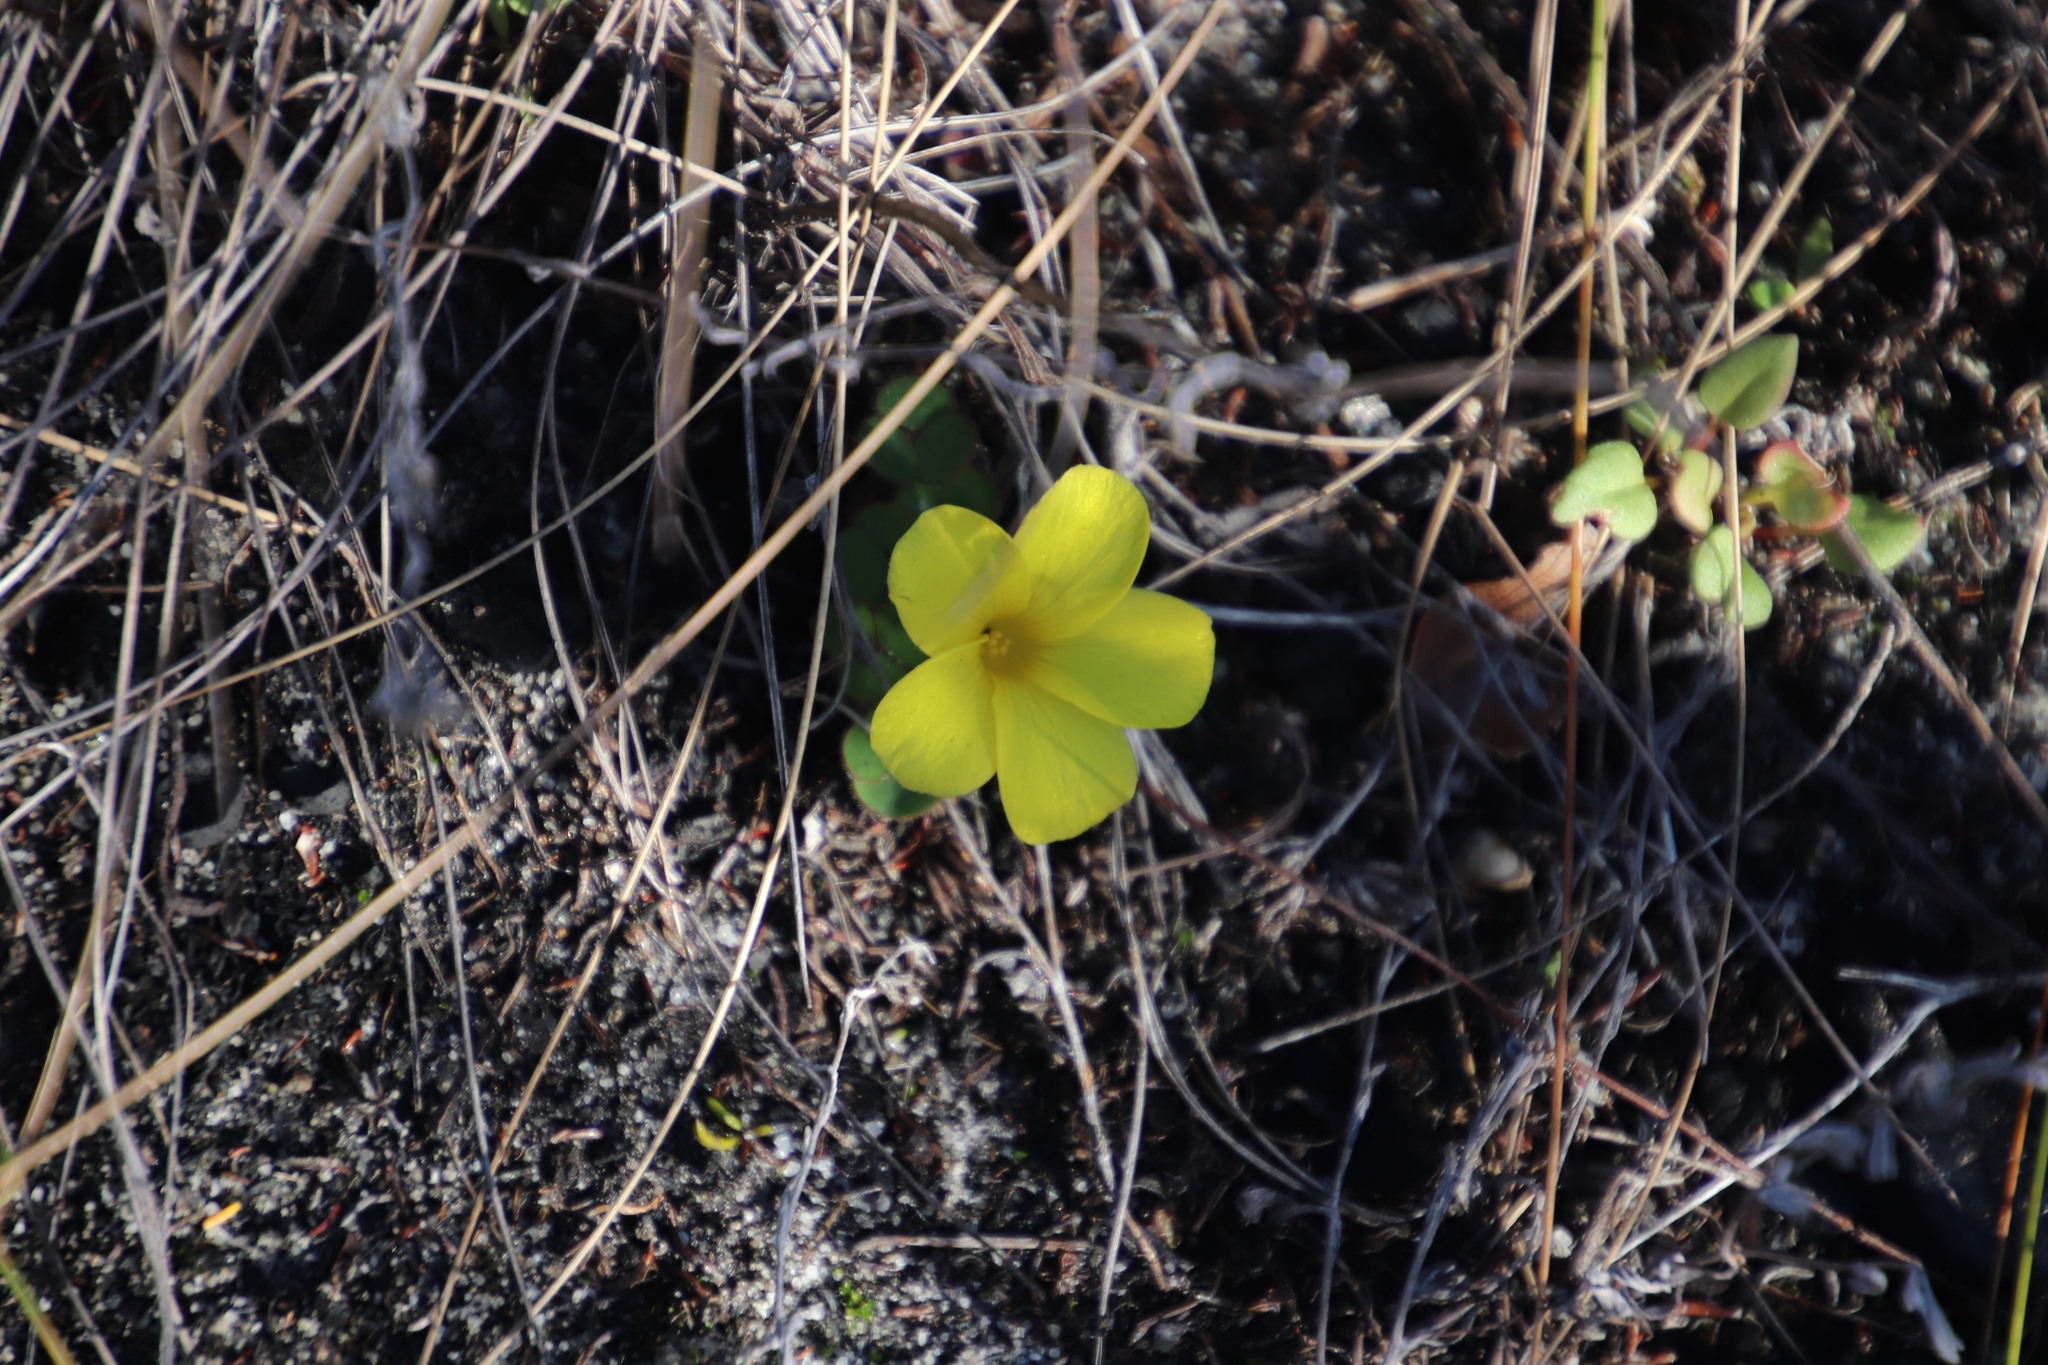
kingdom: Plantae
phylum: Tracheophyta
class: Magnoliopsida
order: Oxalidales
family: Oxalidaceae
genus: Oxalis
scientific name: Oxalis luteola
